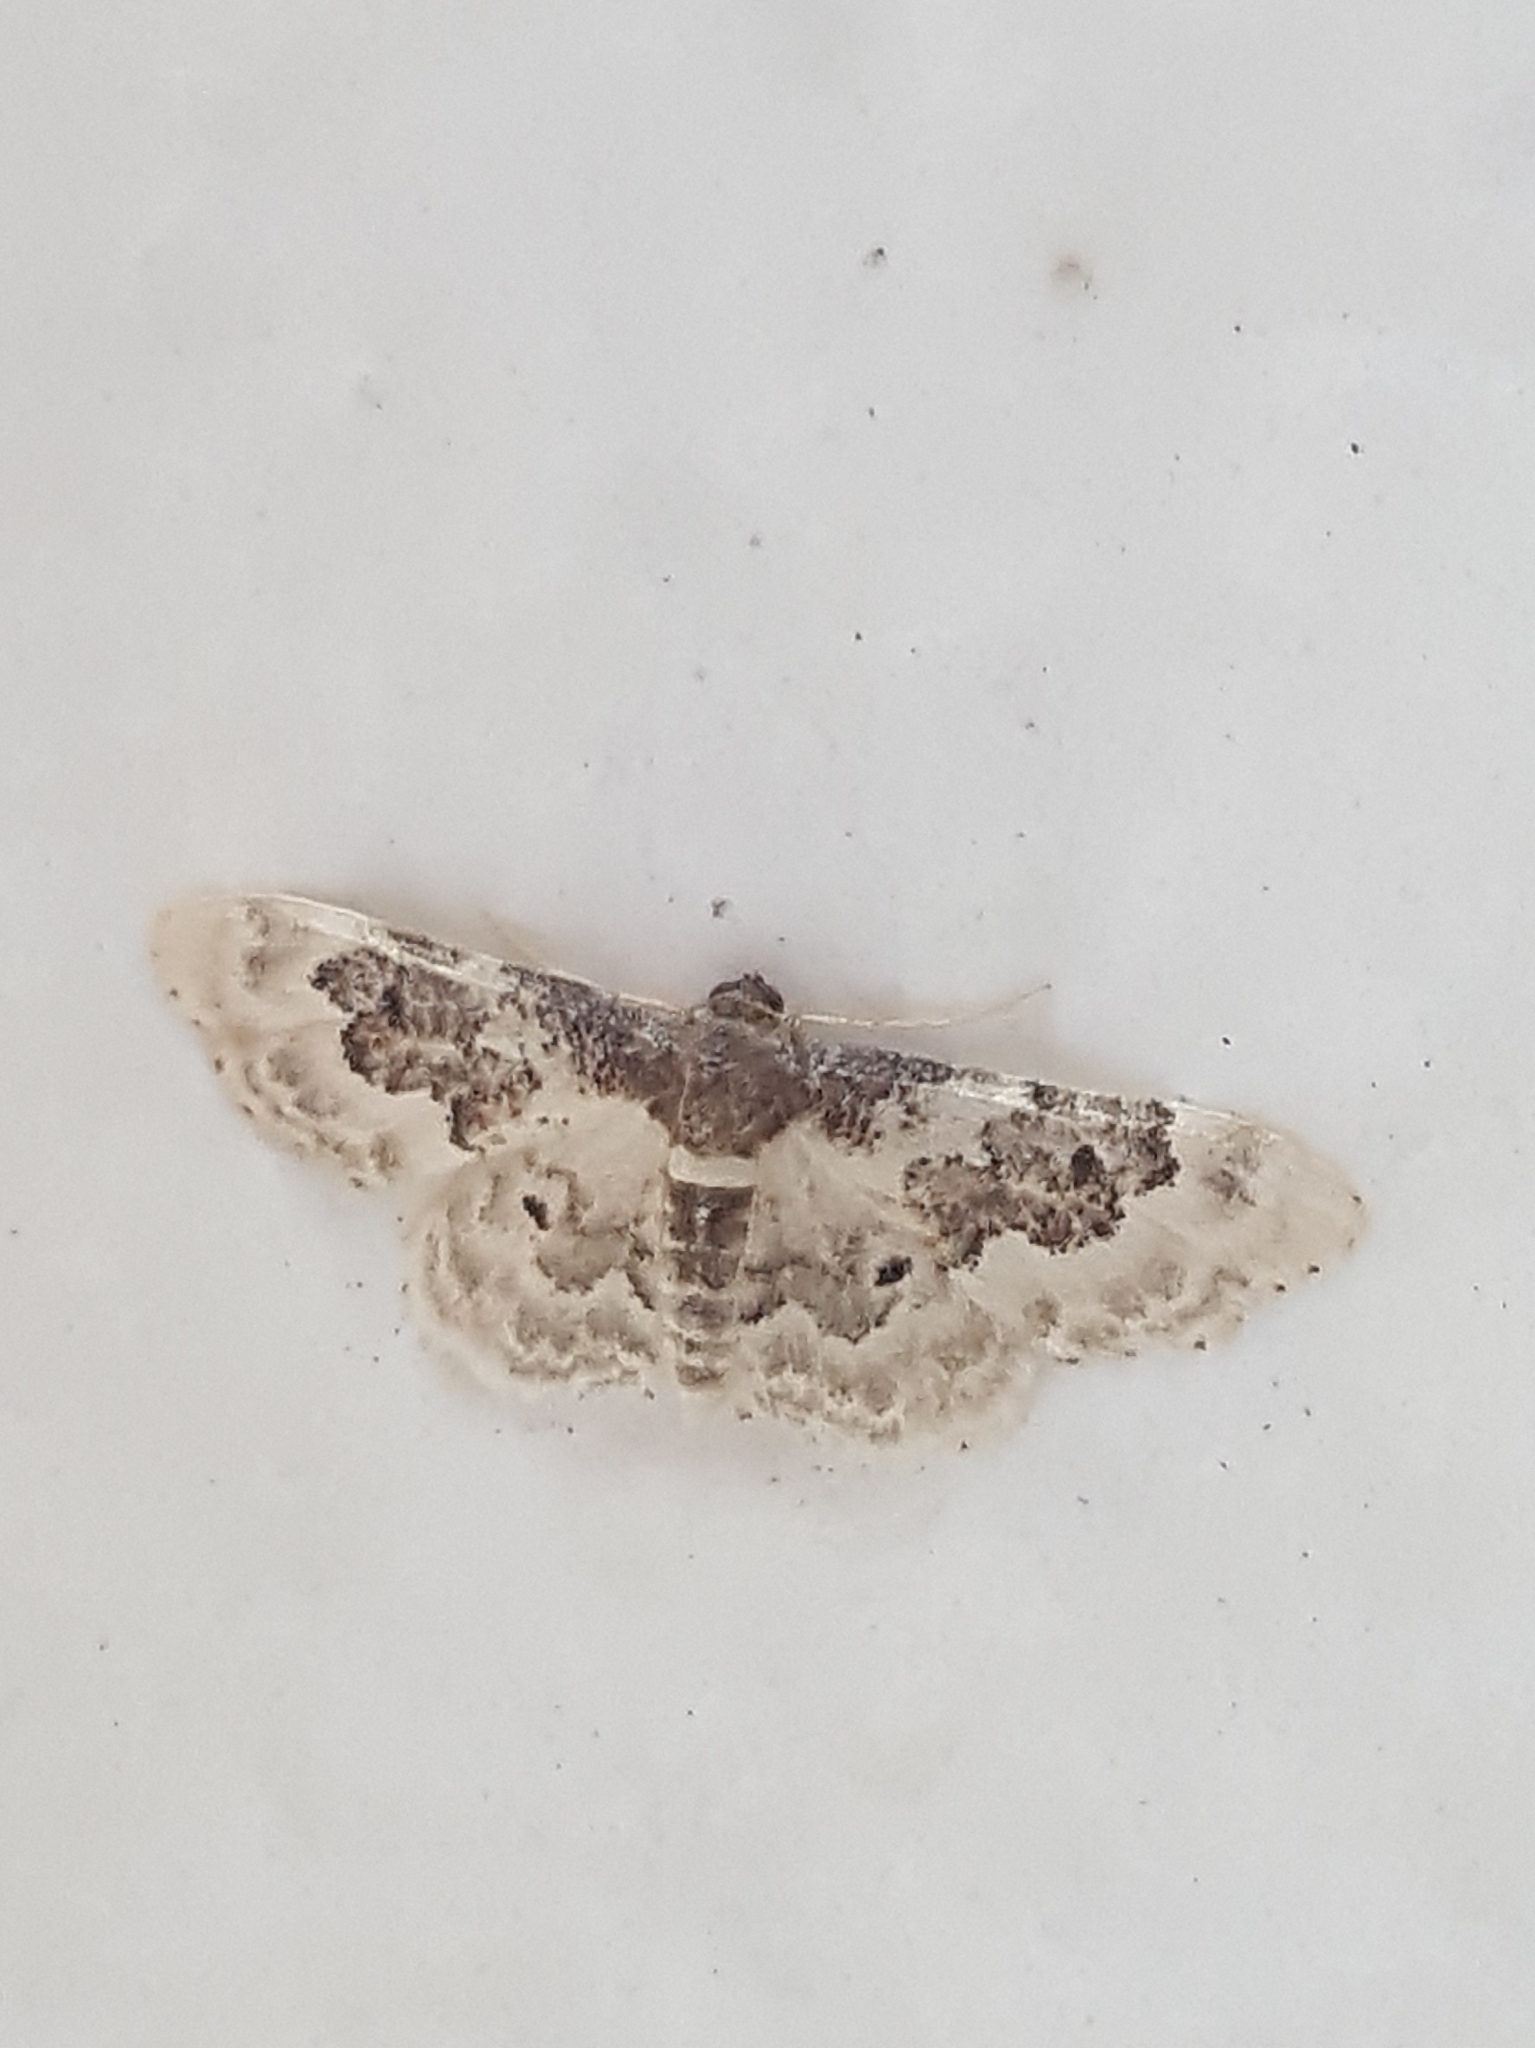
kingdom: Animalia
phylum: Arthropoda
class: Insecta
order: Lepidoptera
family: Geometridae
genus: Idaea
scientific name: Idaea rusticata
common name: Least carpet
